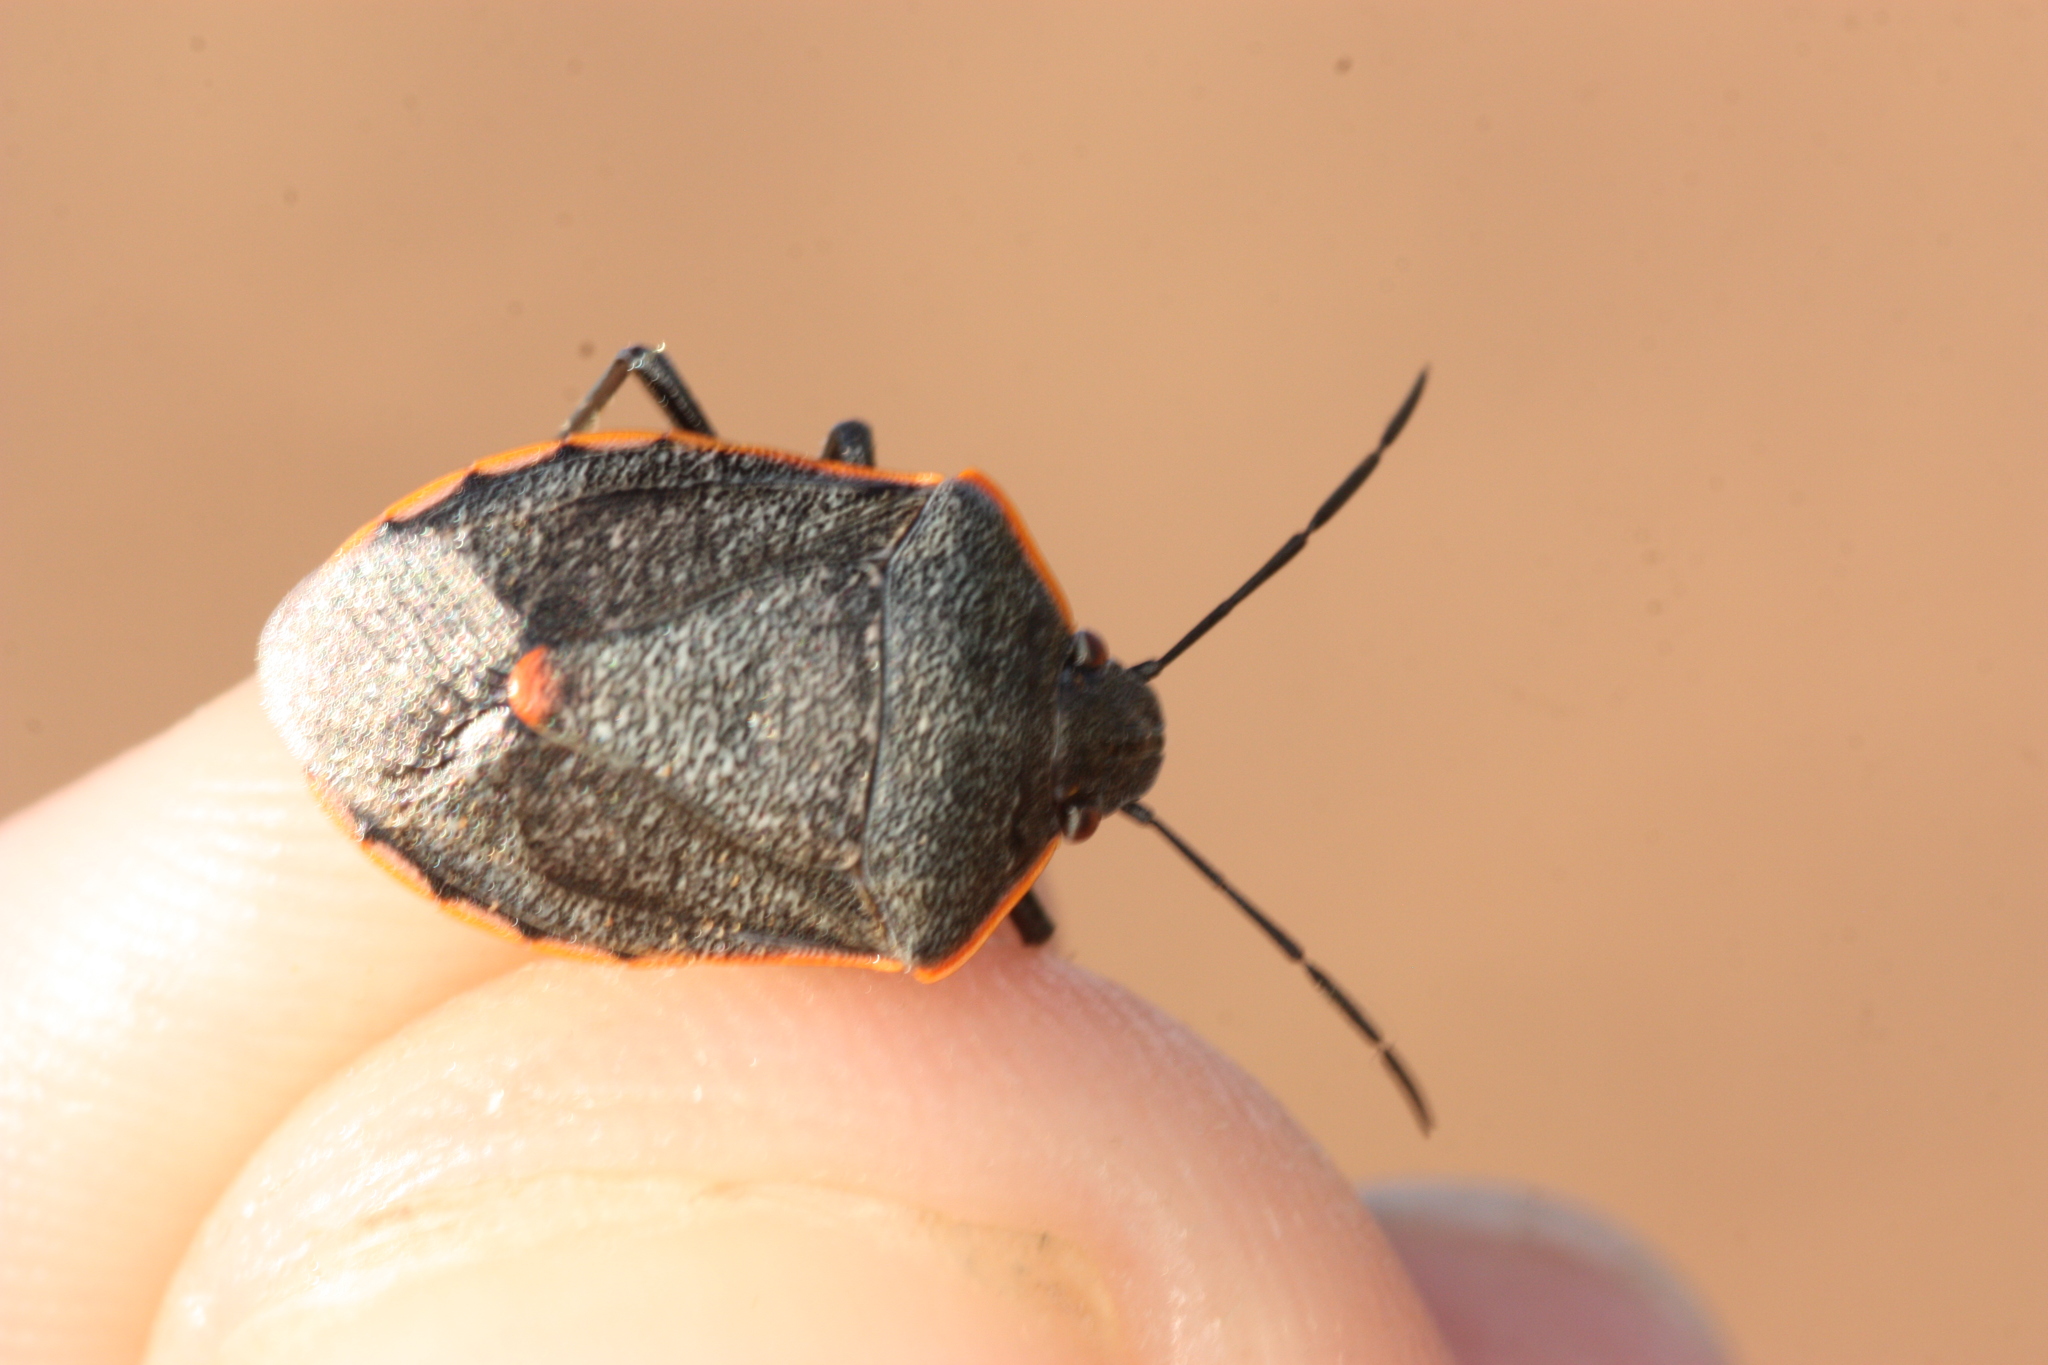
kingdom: Animalia
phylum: Arthropoda
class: Insecta
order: Hemiptera
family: Pentatomidae
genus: Chlorochroa
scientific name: Chlorochroa ligata
